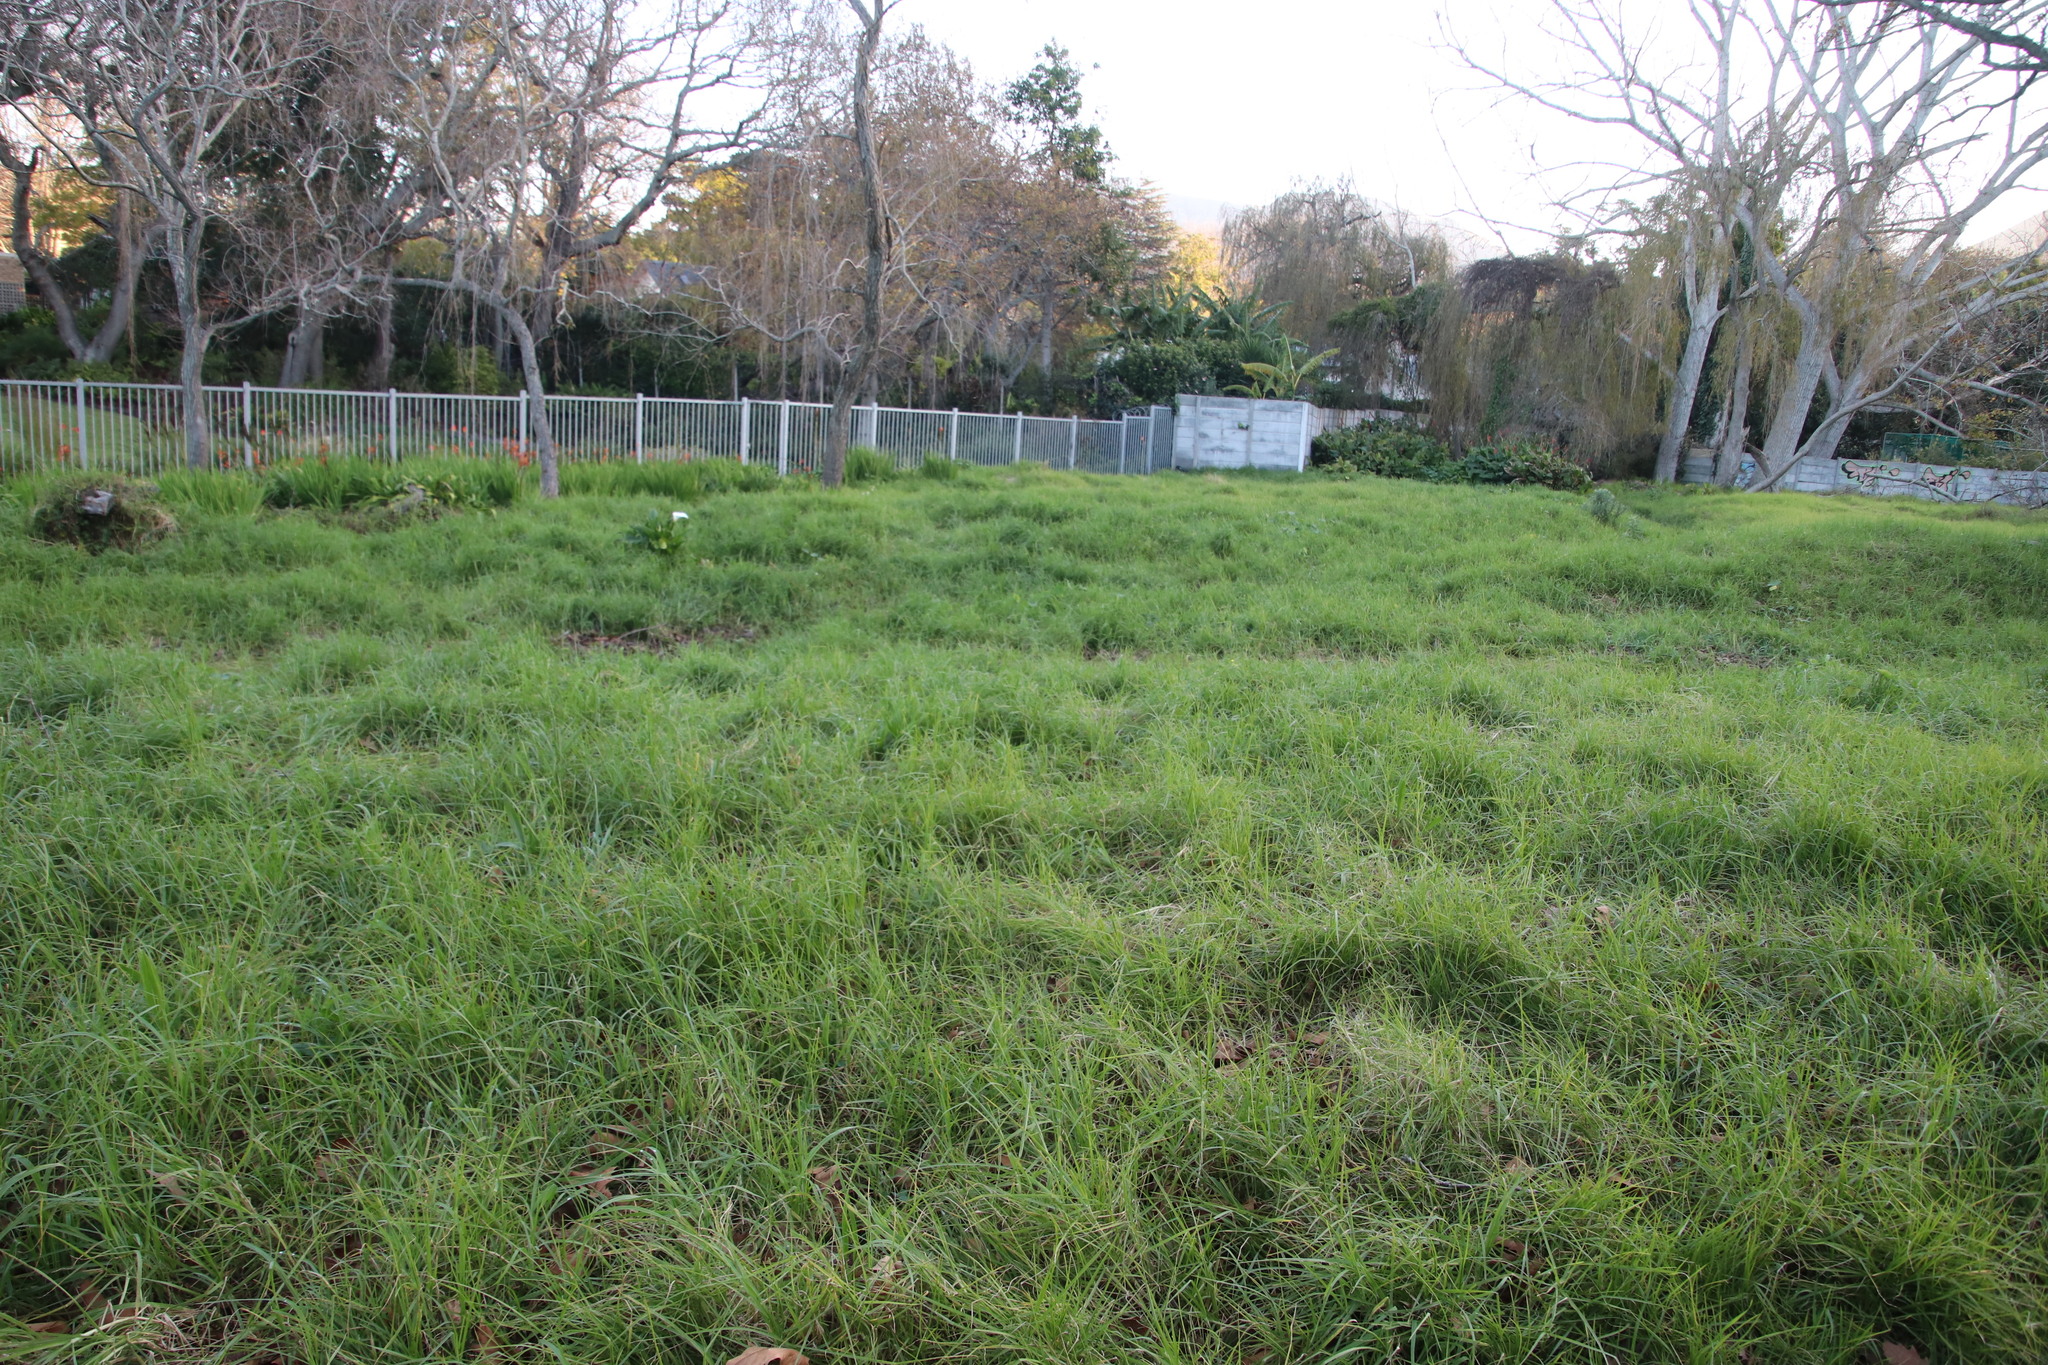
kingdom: Plantae
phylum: Tracheophyta
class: Liliopsida
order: Poales
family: Poaceae
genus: Cenchrus
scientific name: Cenchrus clandestinus
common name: Kikuyugrass
